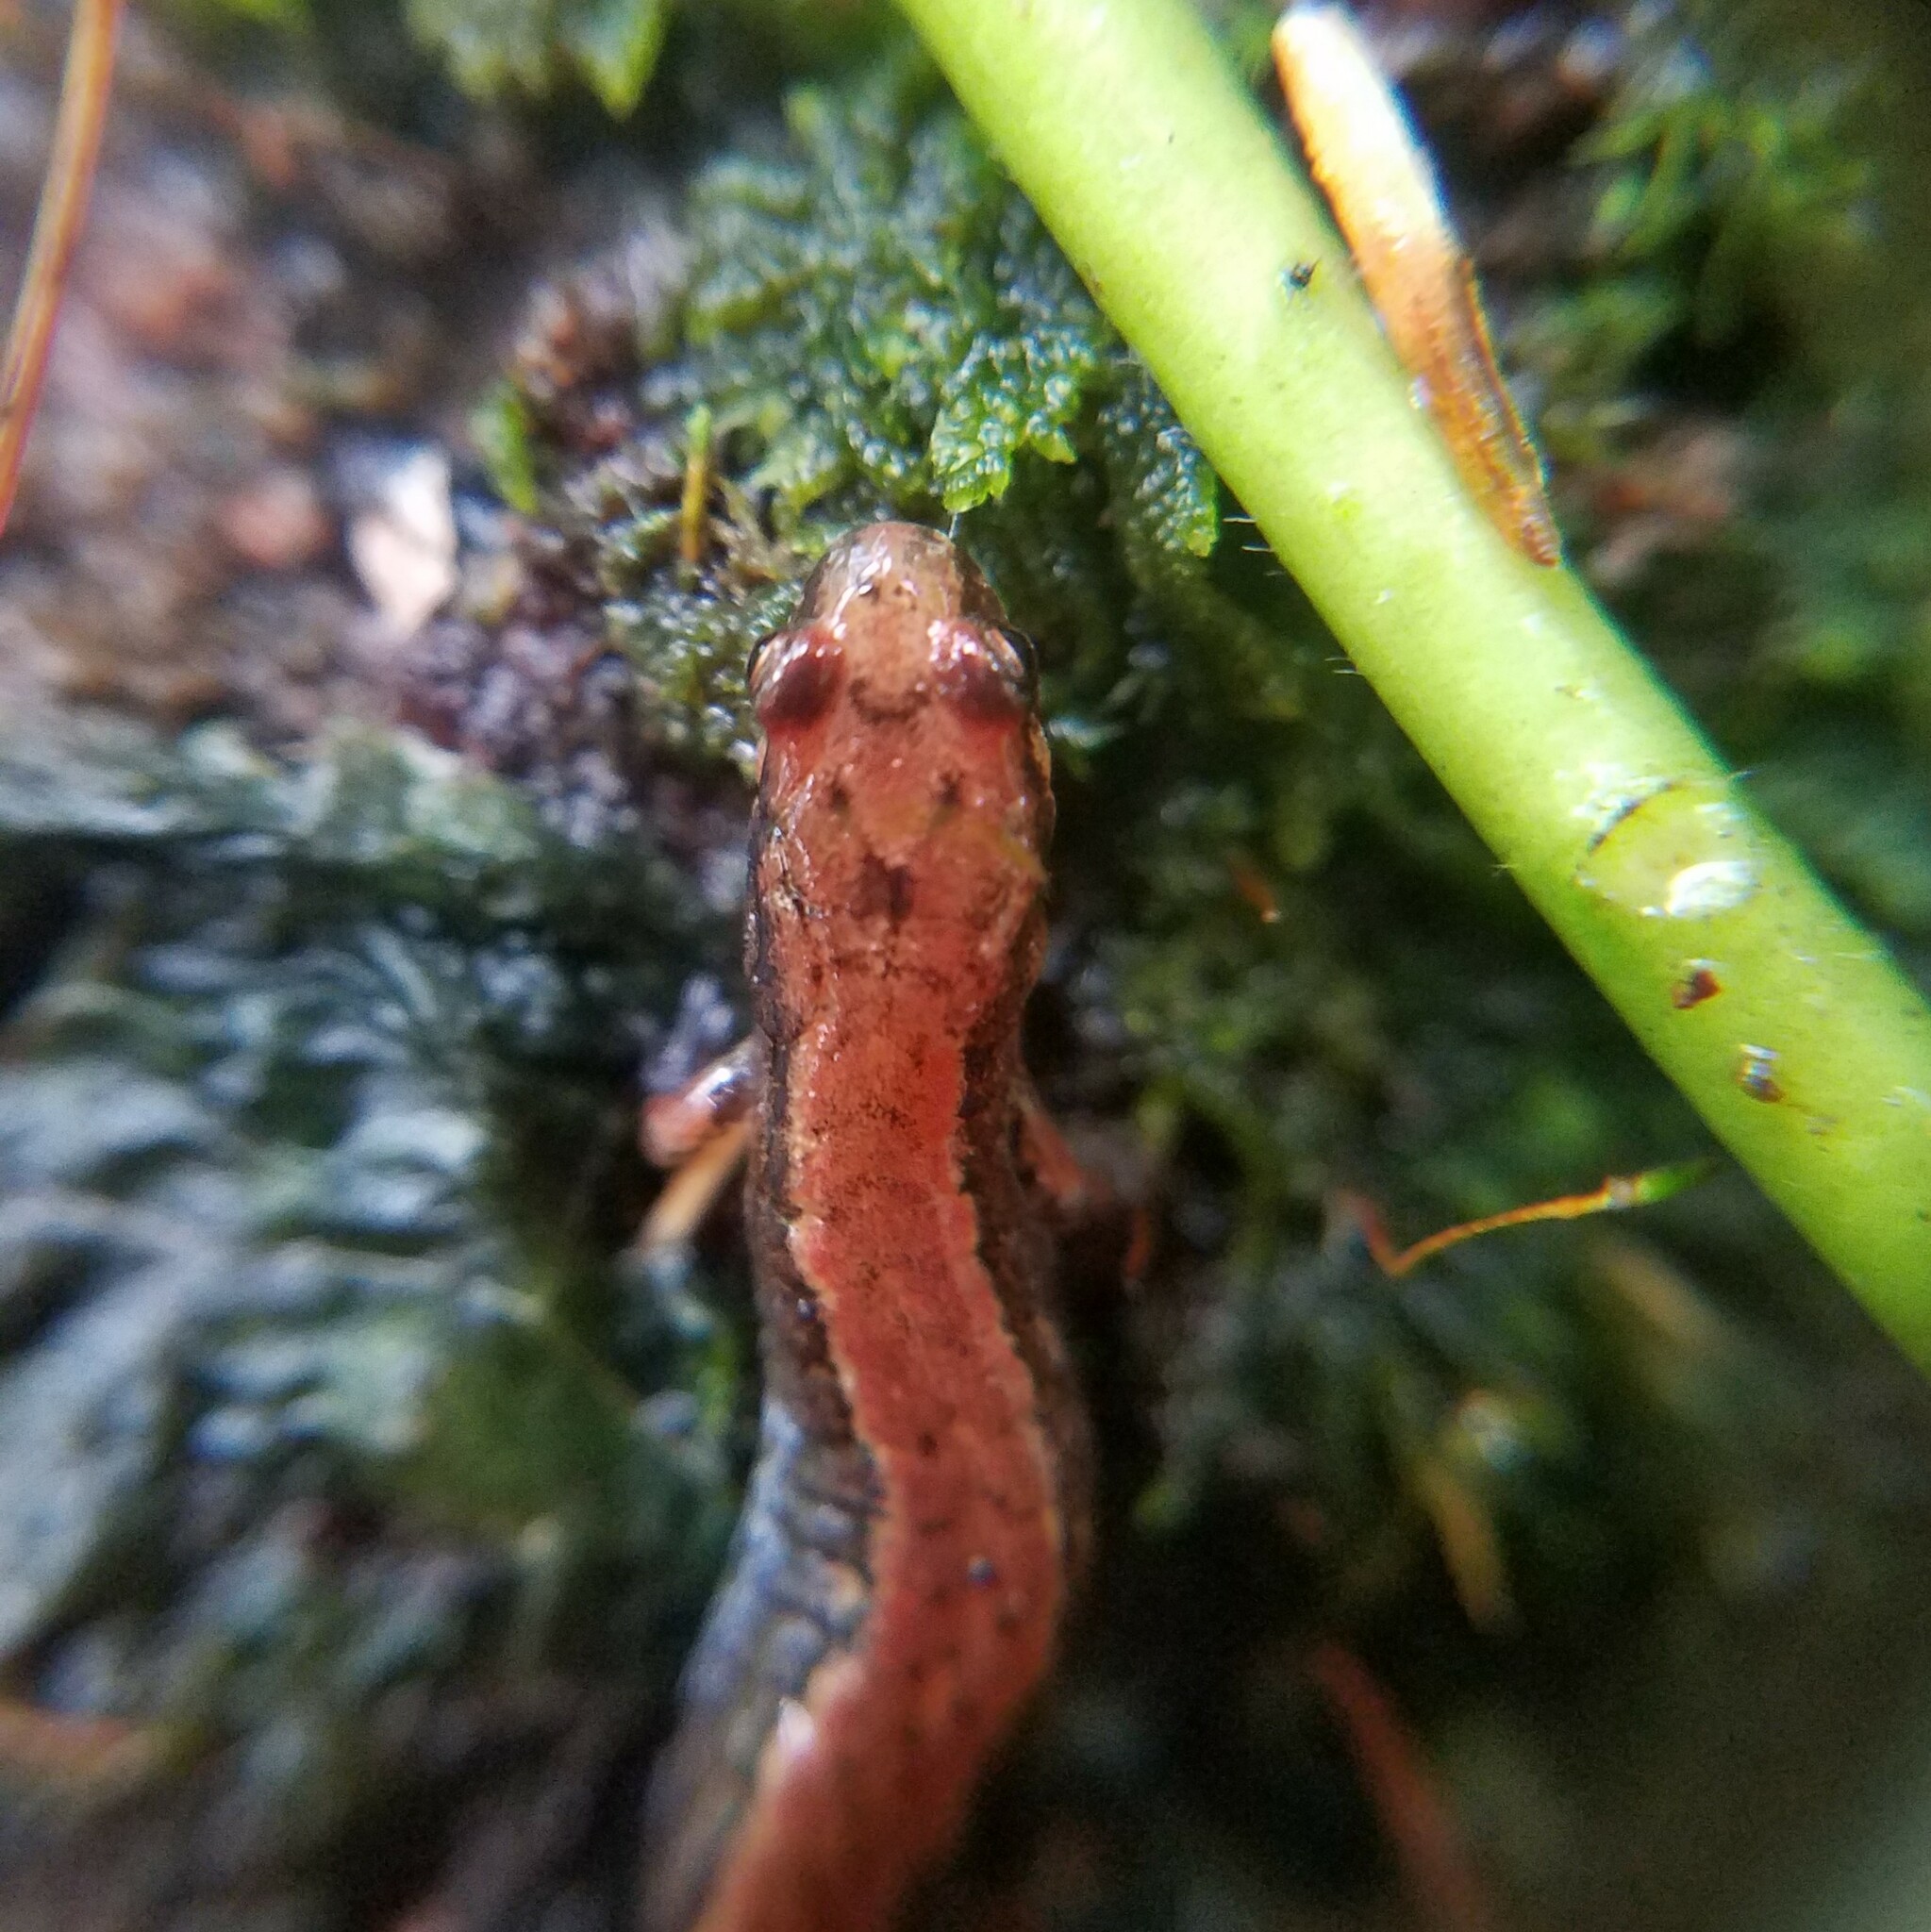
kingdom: Animalia
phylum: Chordata
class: Amphibia
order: Caudata
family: Plethodontidae
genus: Desmognathus
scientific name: Desmognathus aeneus
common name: Seepage salamander
